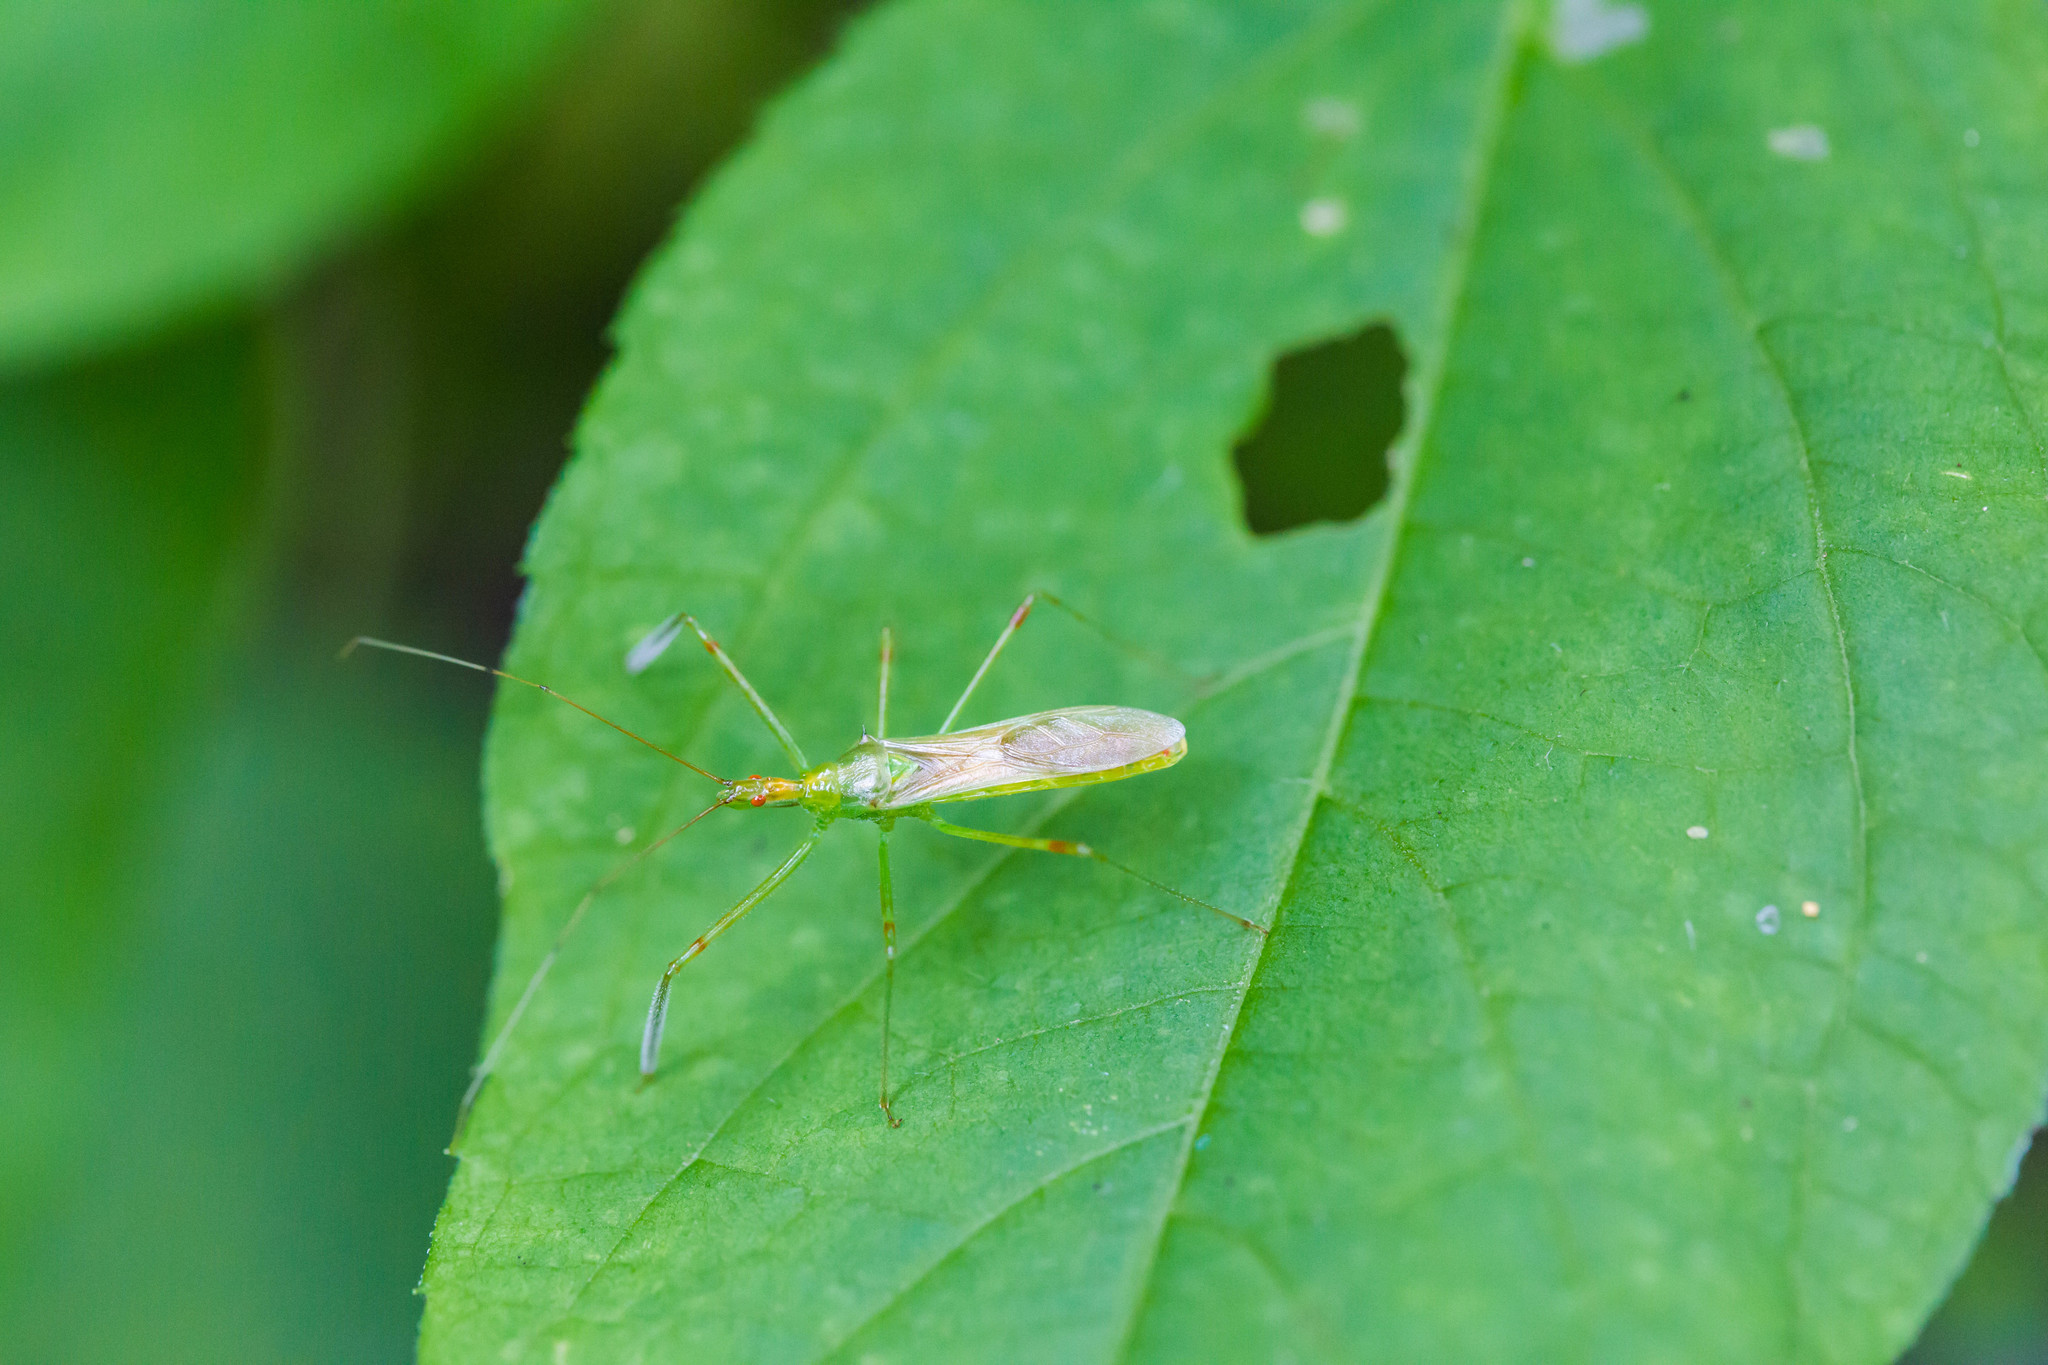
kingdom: Animalia
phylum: Arthropoda
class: Insecta
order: Hemiptera
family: Reduviidae
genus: Zelus
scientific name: Zelus luridus
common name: Pale green assassin bug
